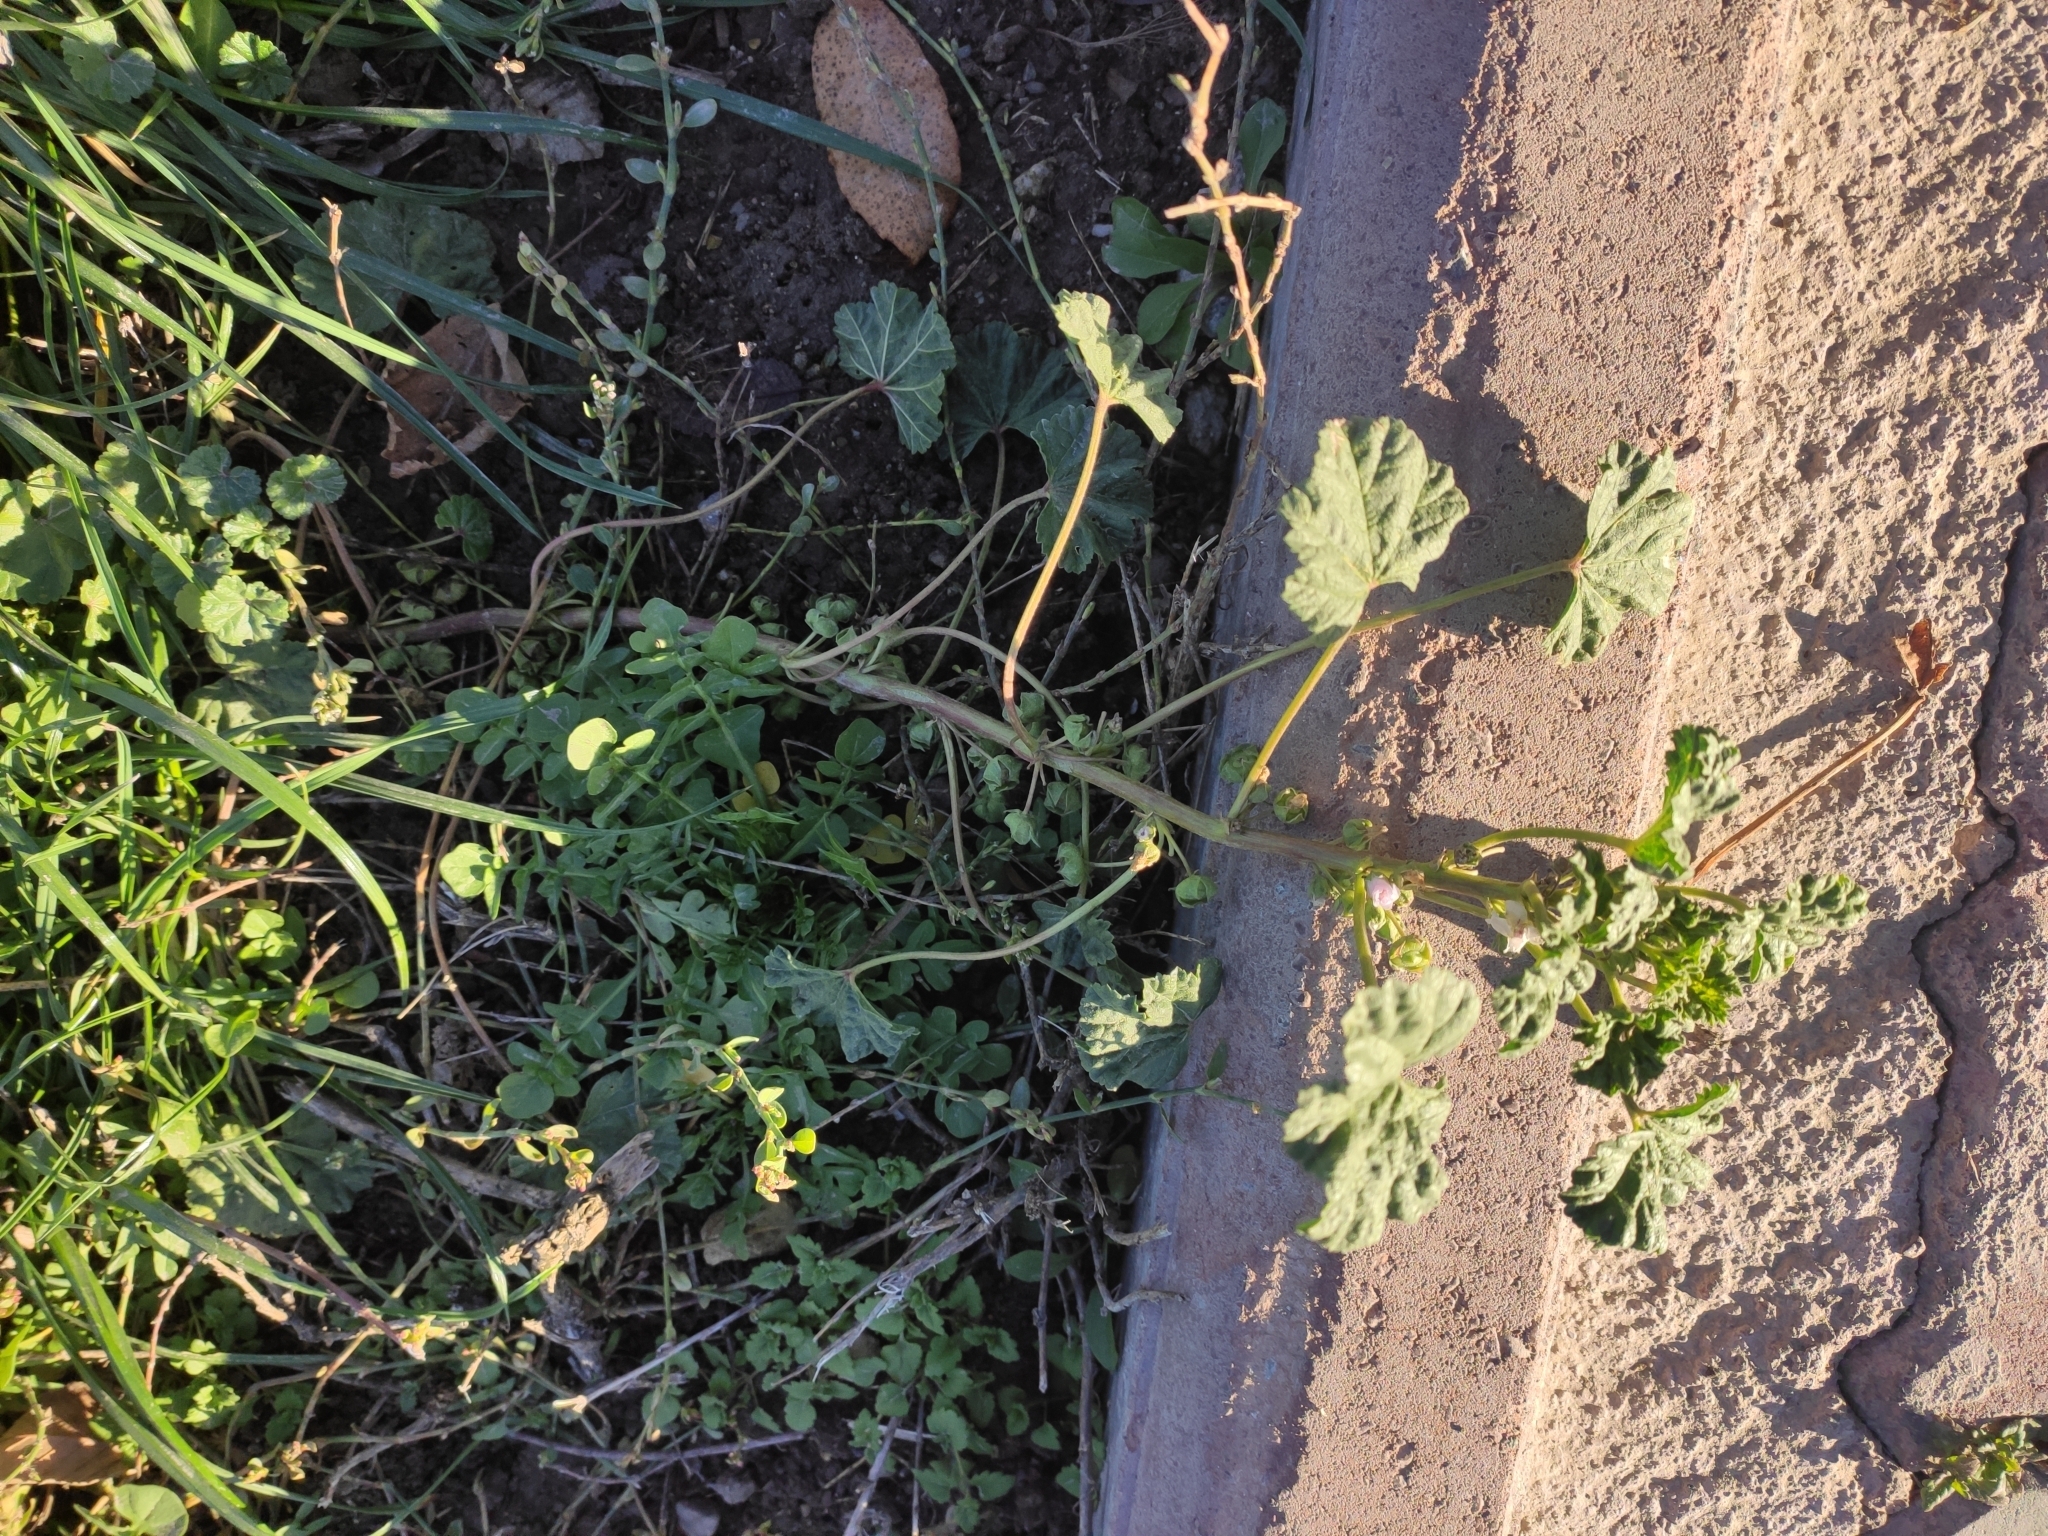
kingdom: Plantae
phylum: Tracheophyta
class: Magnoliopsida
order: Malvales
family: Malvaceae
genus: Malva
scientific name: Malva neglecta
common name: Common mallow
